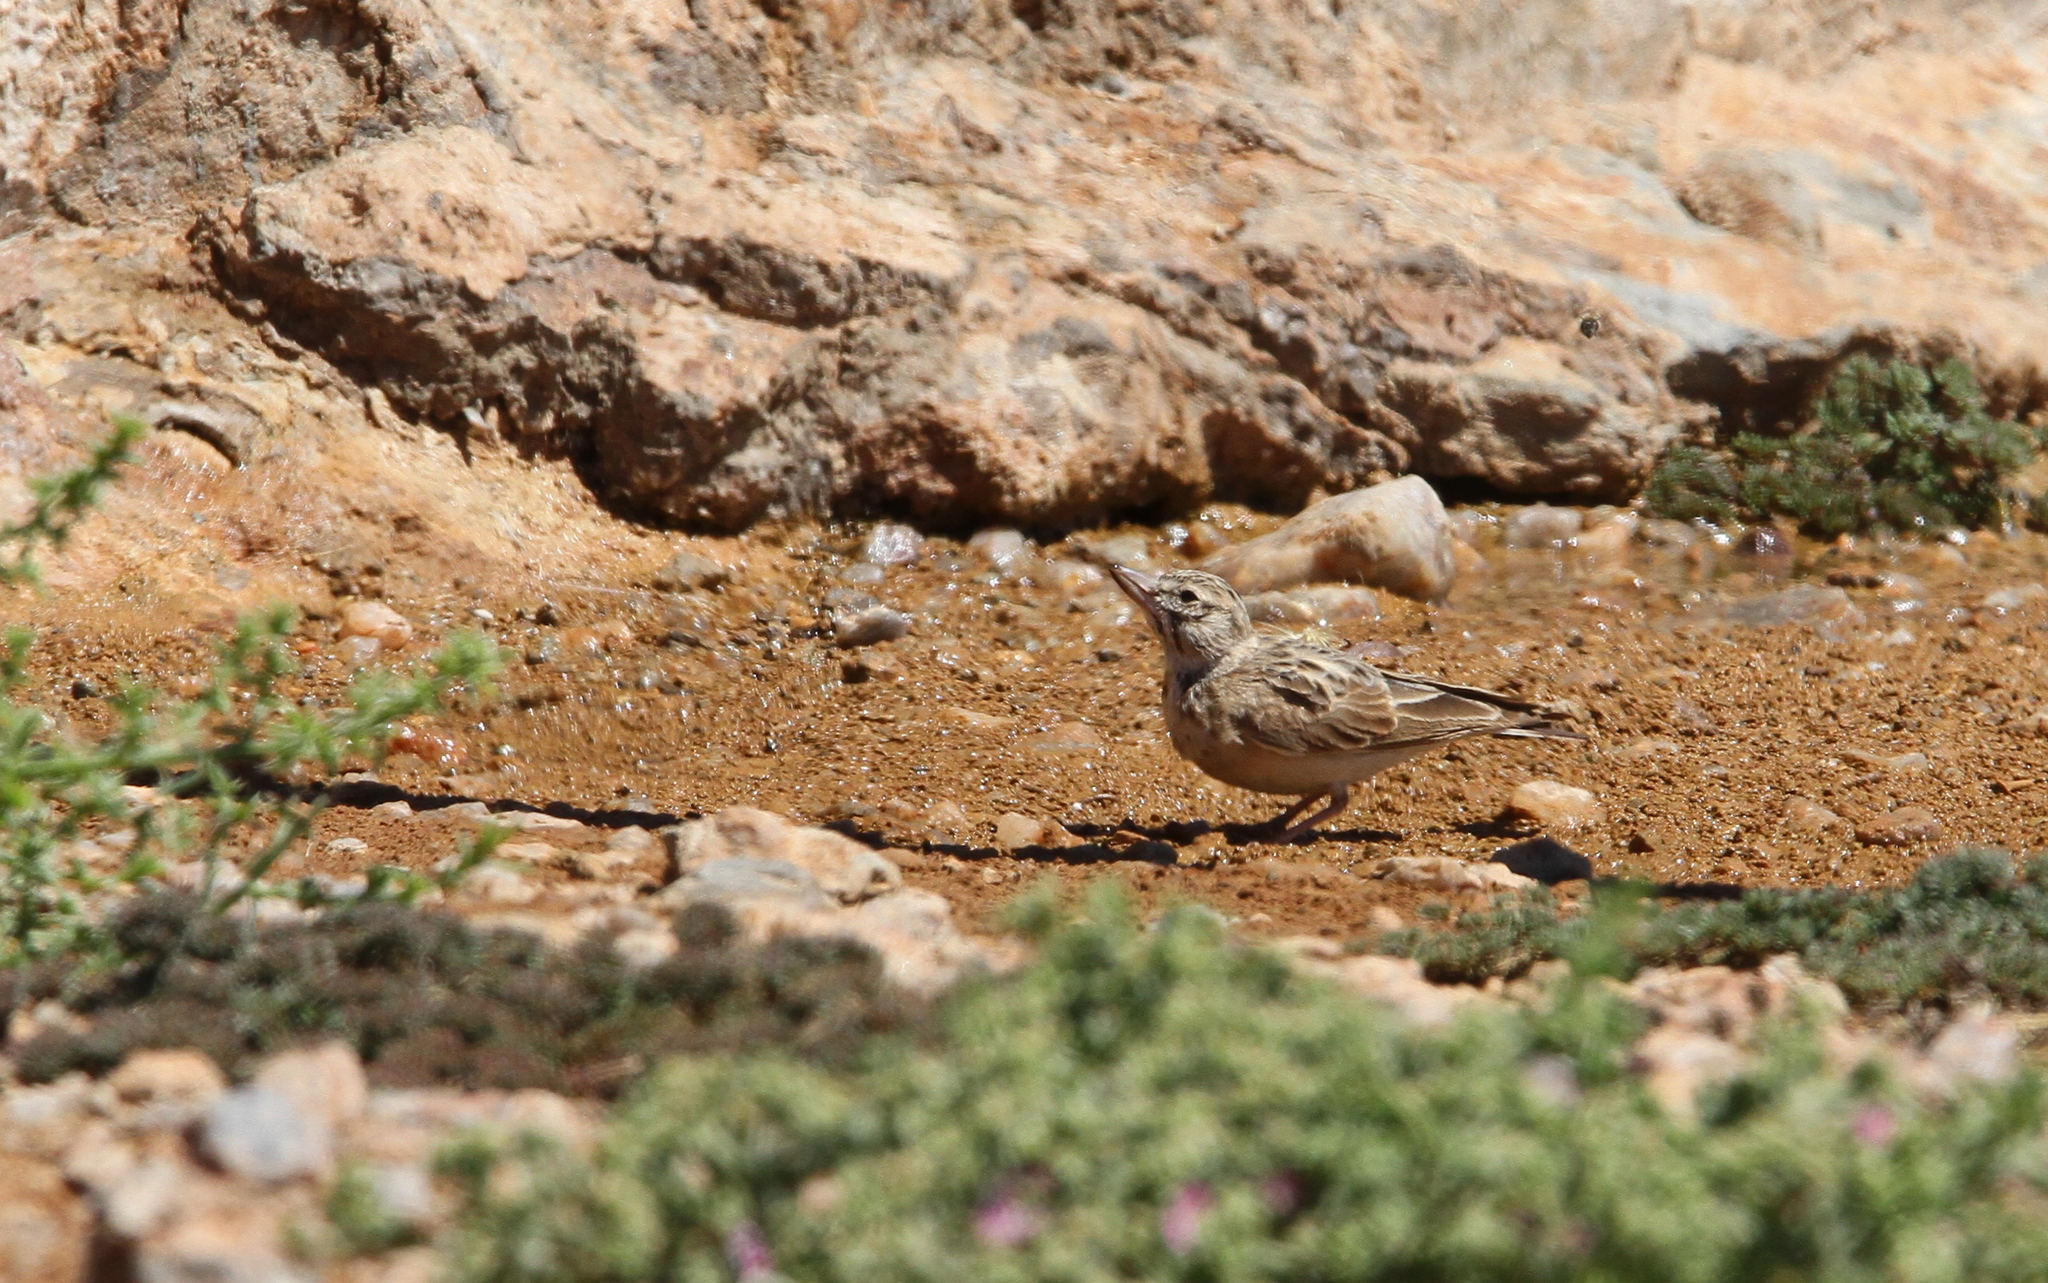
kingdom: Animalia
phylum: Chordata
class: Aves
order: Passeriformes
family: Alaudidae
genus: Spizocorys
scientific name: Spizocorys sclateri
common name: Sclater's lark
